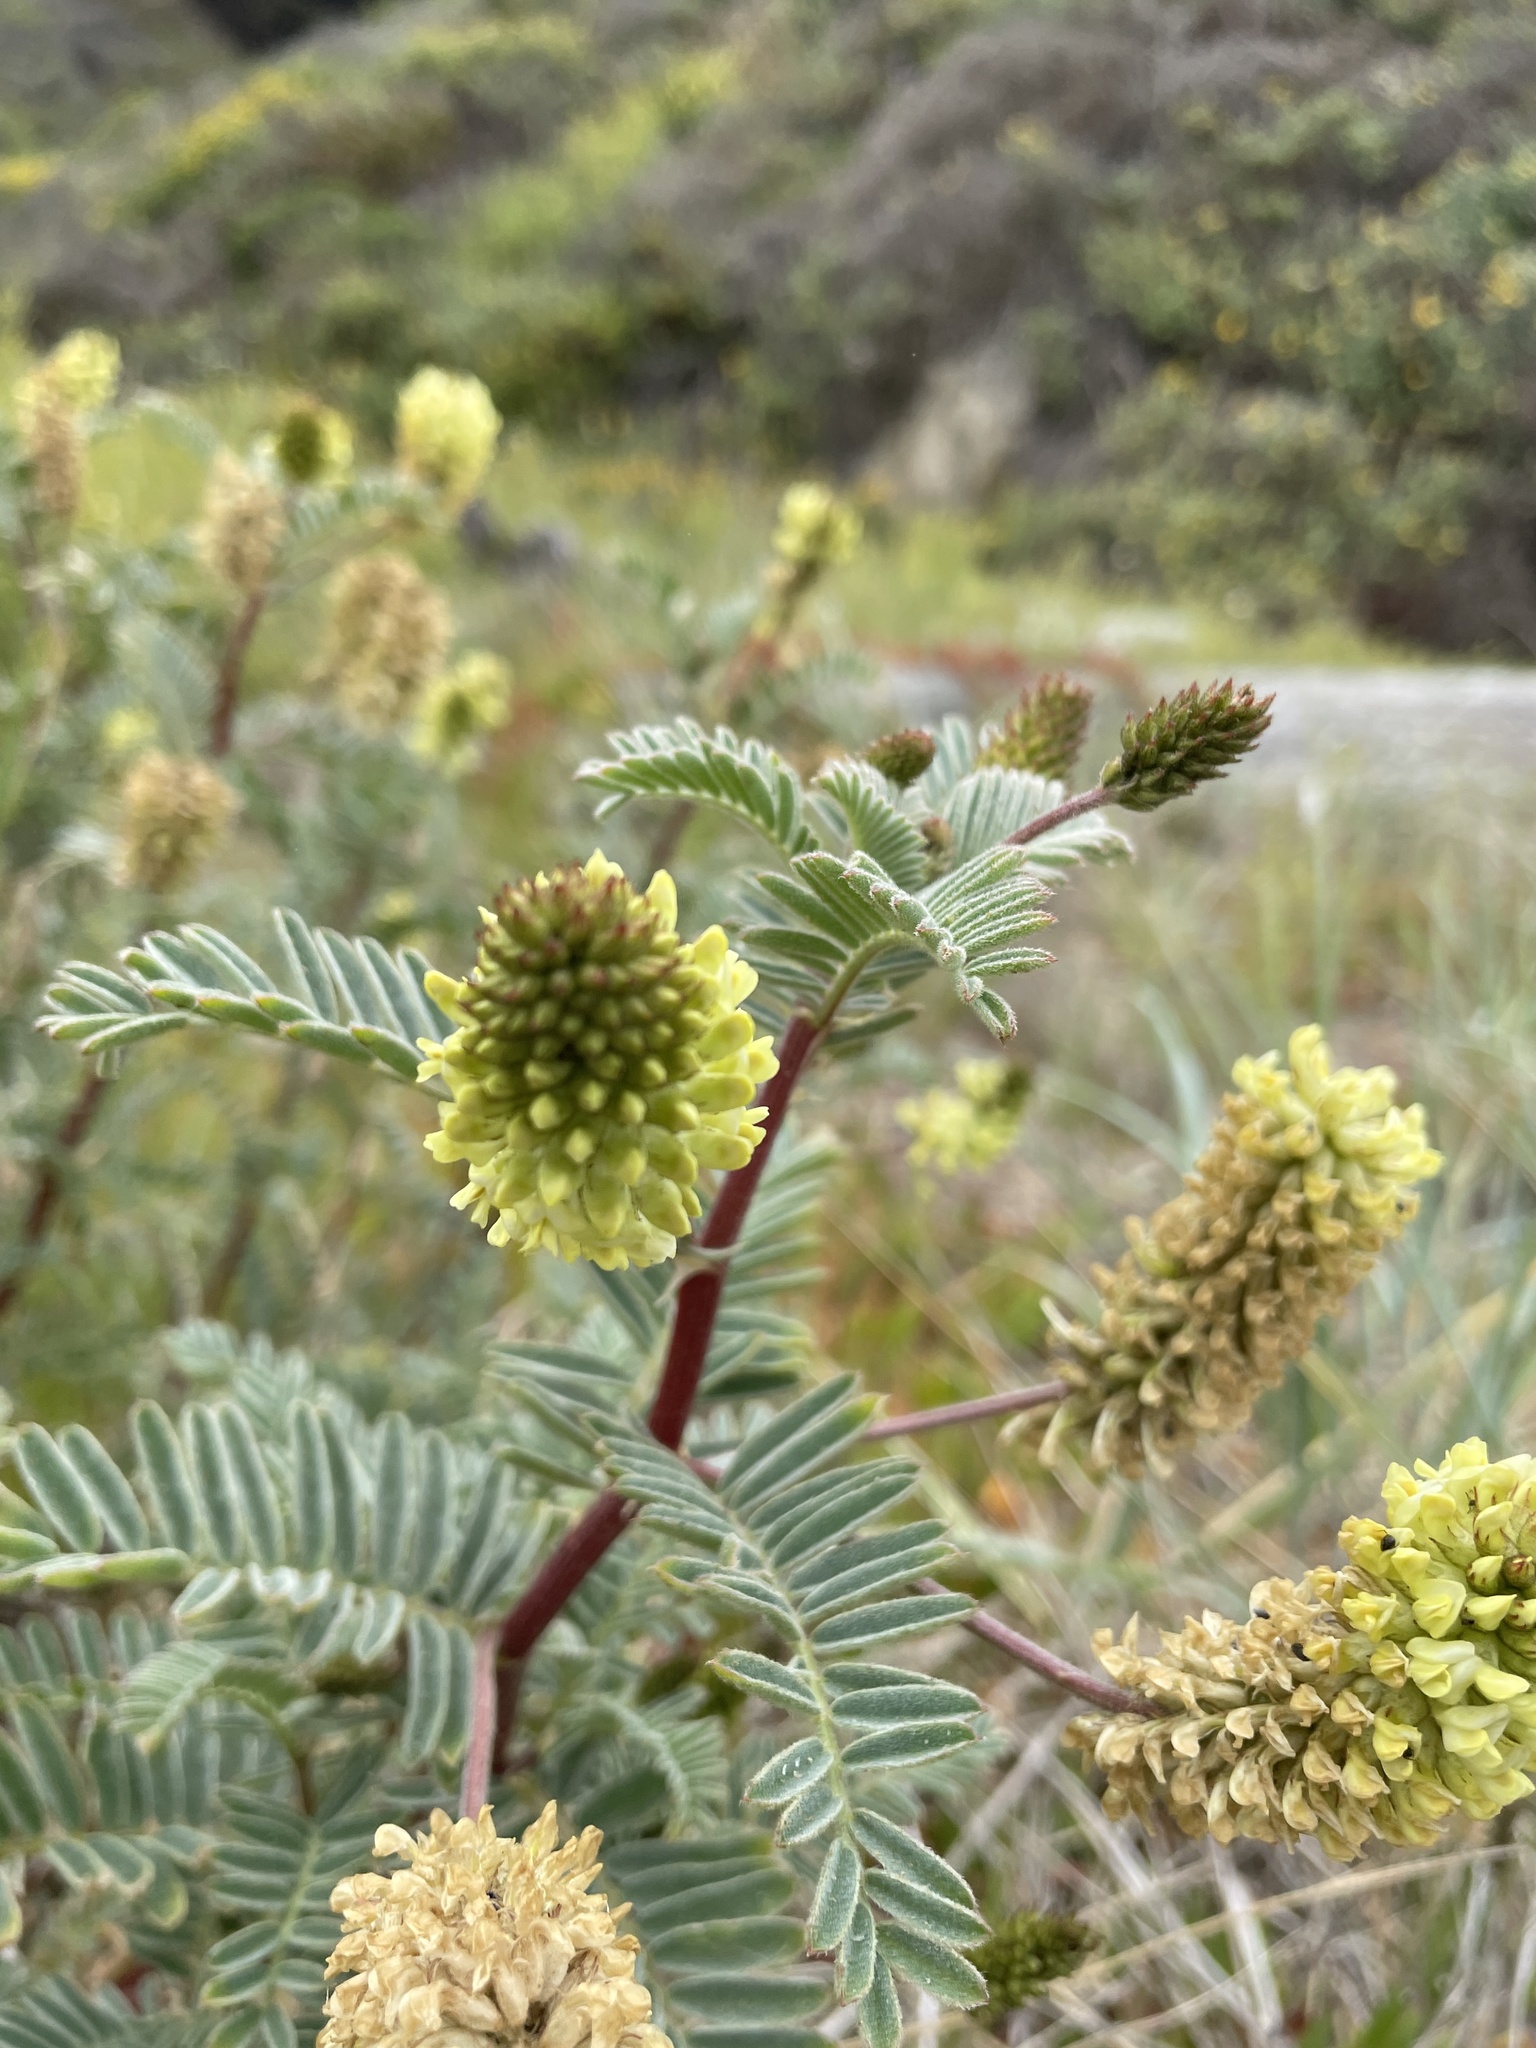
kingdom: Plantae
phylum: Tracheophyta
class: Magnoliopsida
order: Fabales
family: Fabaceae
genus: Astragalus
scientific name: Astragalus pycnostachyus
